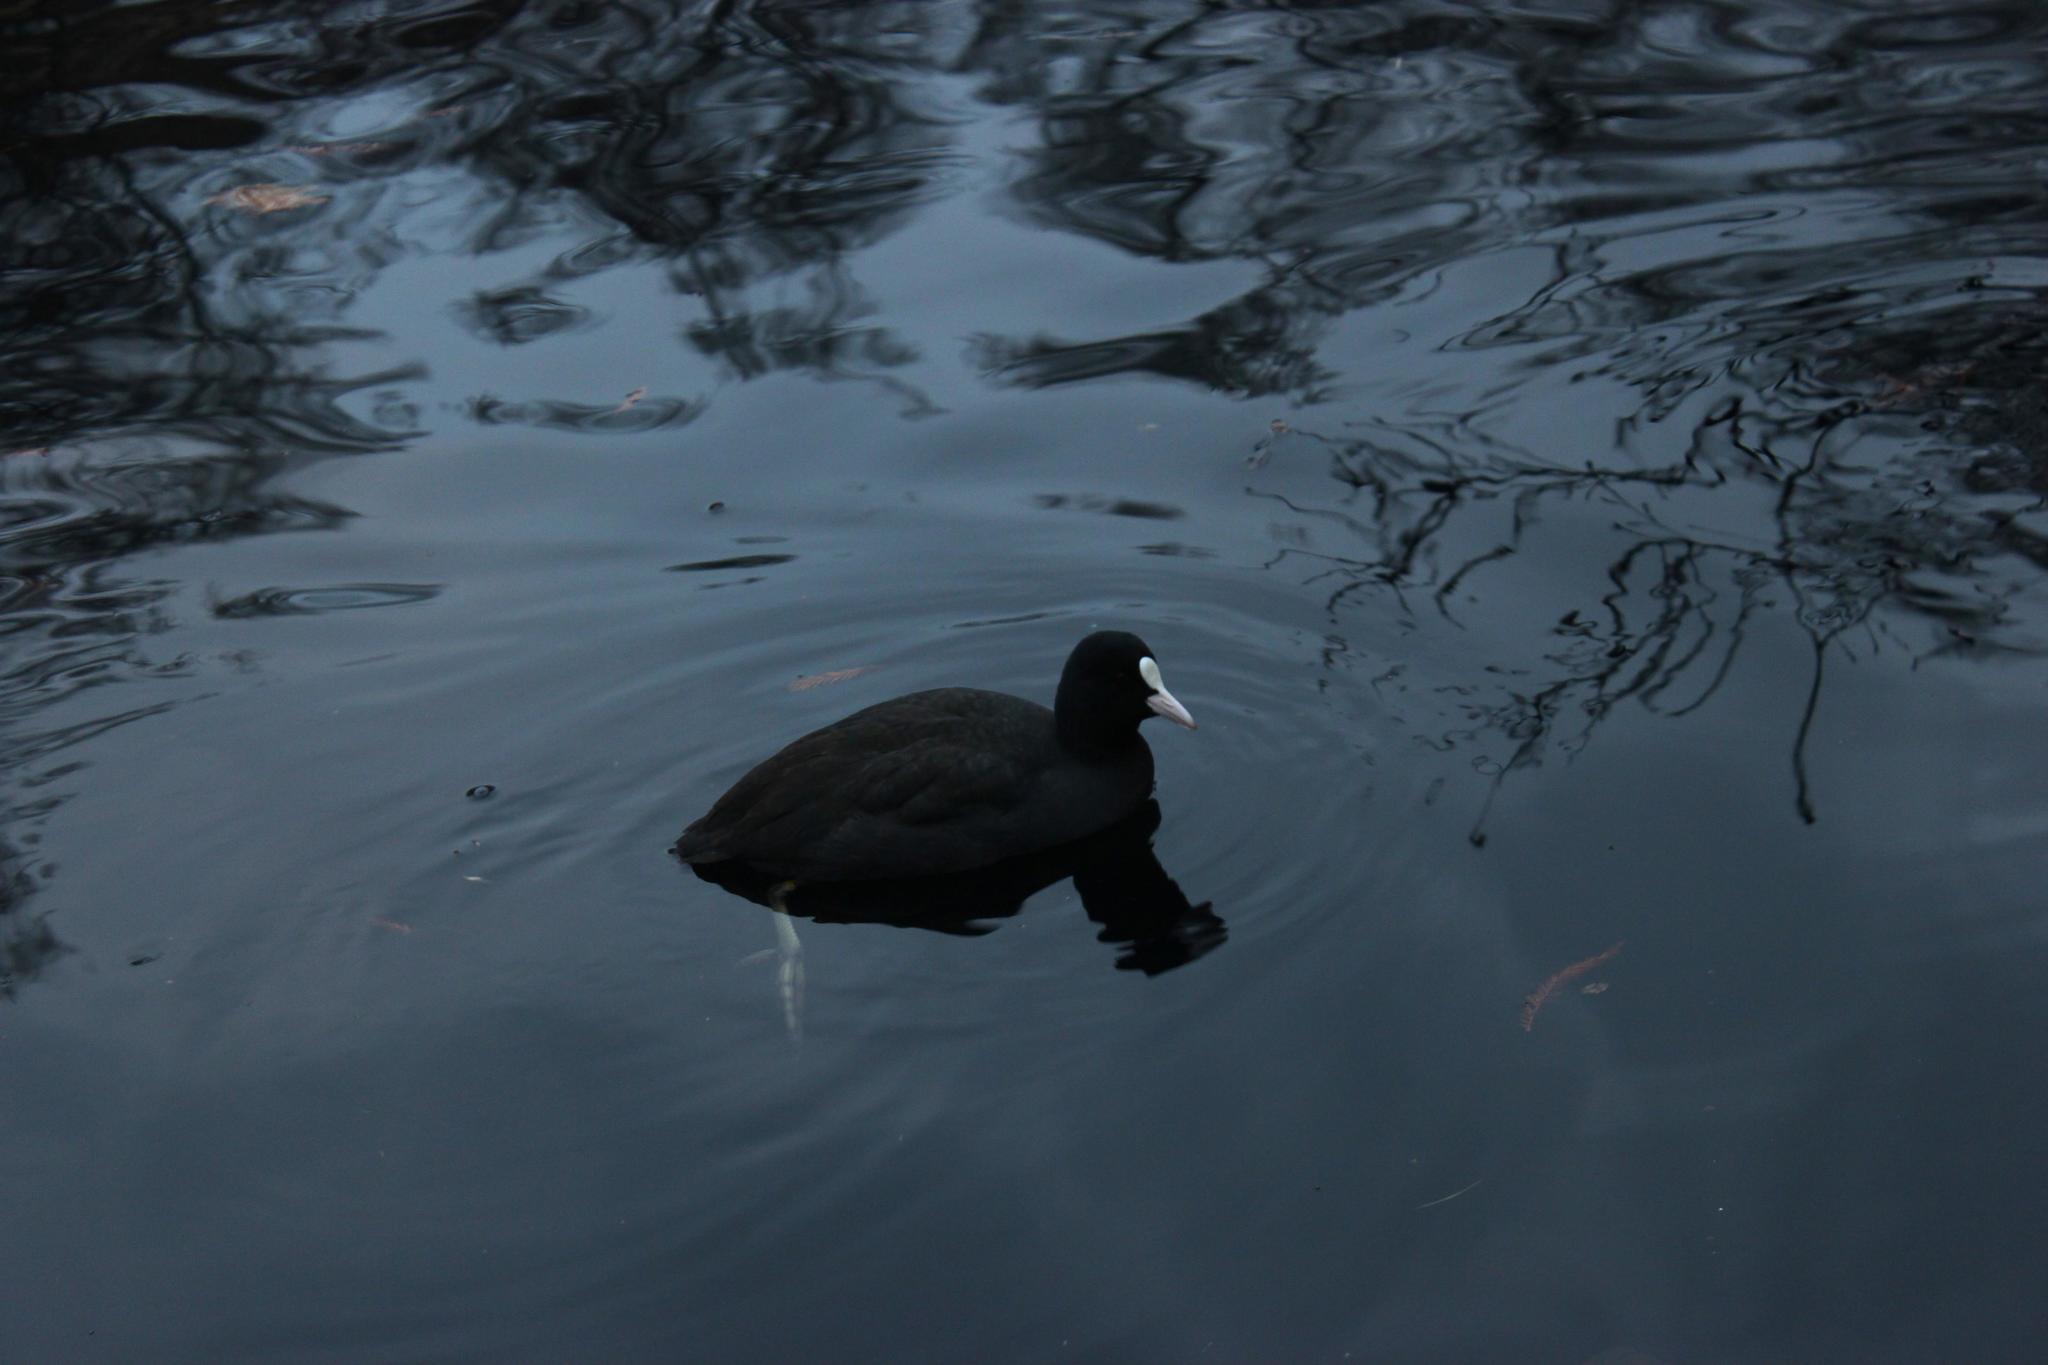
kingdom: Animalia
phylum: Chordata
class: Aves
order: Gruiformes
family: Rallidae
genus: Fulica
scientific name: Fulica atra
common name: Eurasian coot
